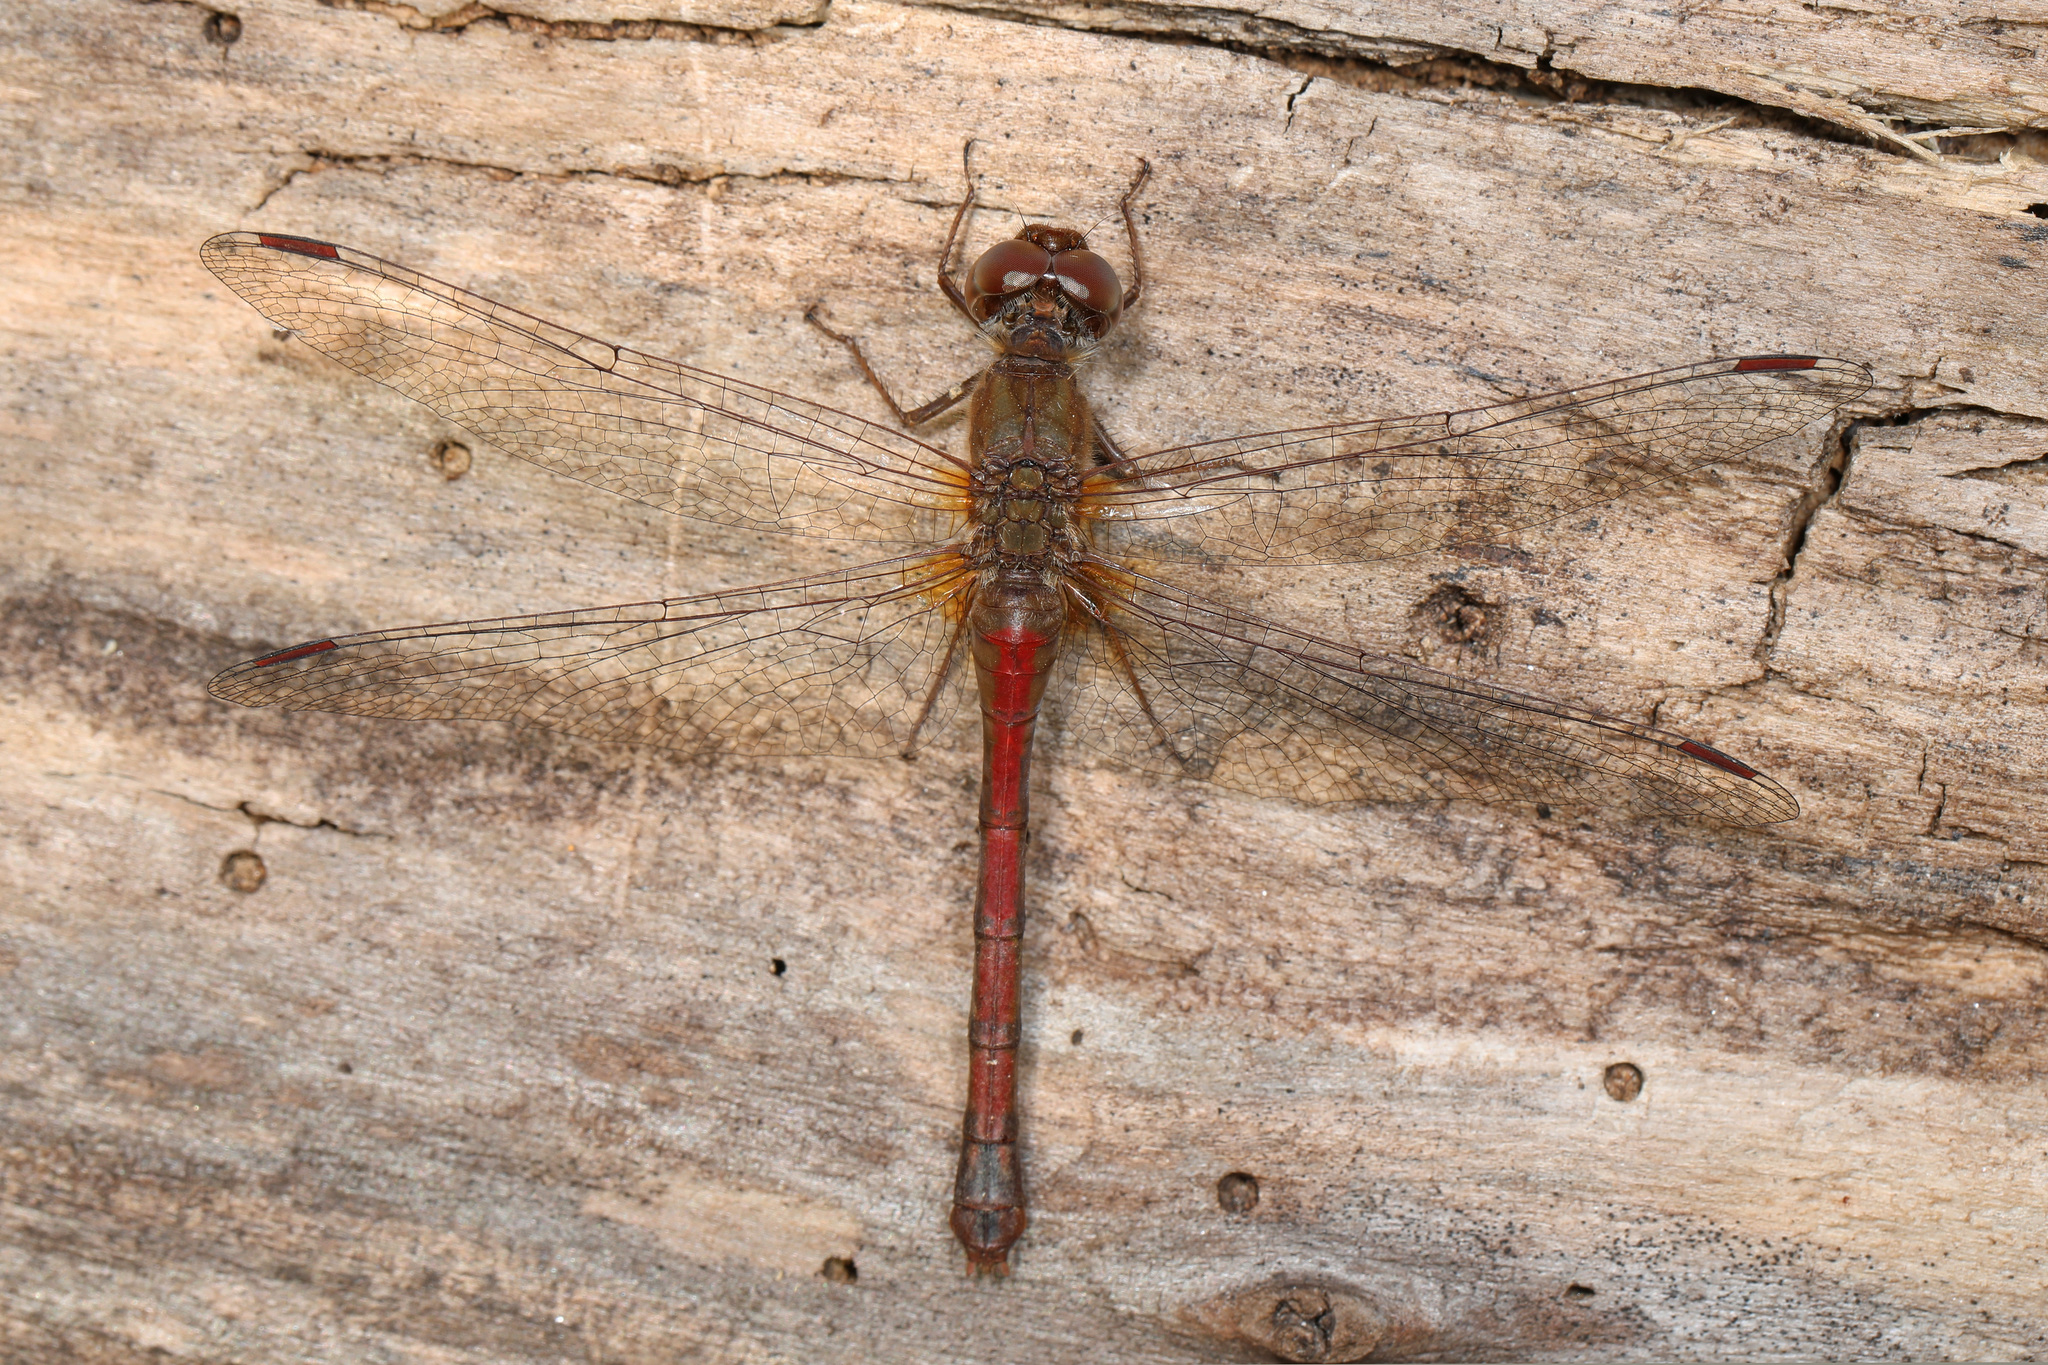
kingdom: Animalia
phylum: Arthropoda
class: Insecta
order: Odonata
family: Libellulidae
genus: Sympetrum
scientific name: Sympetrum vicinum
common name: Autumn meadowhawk
